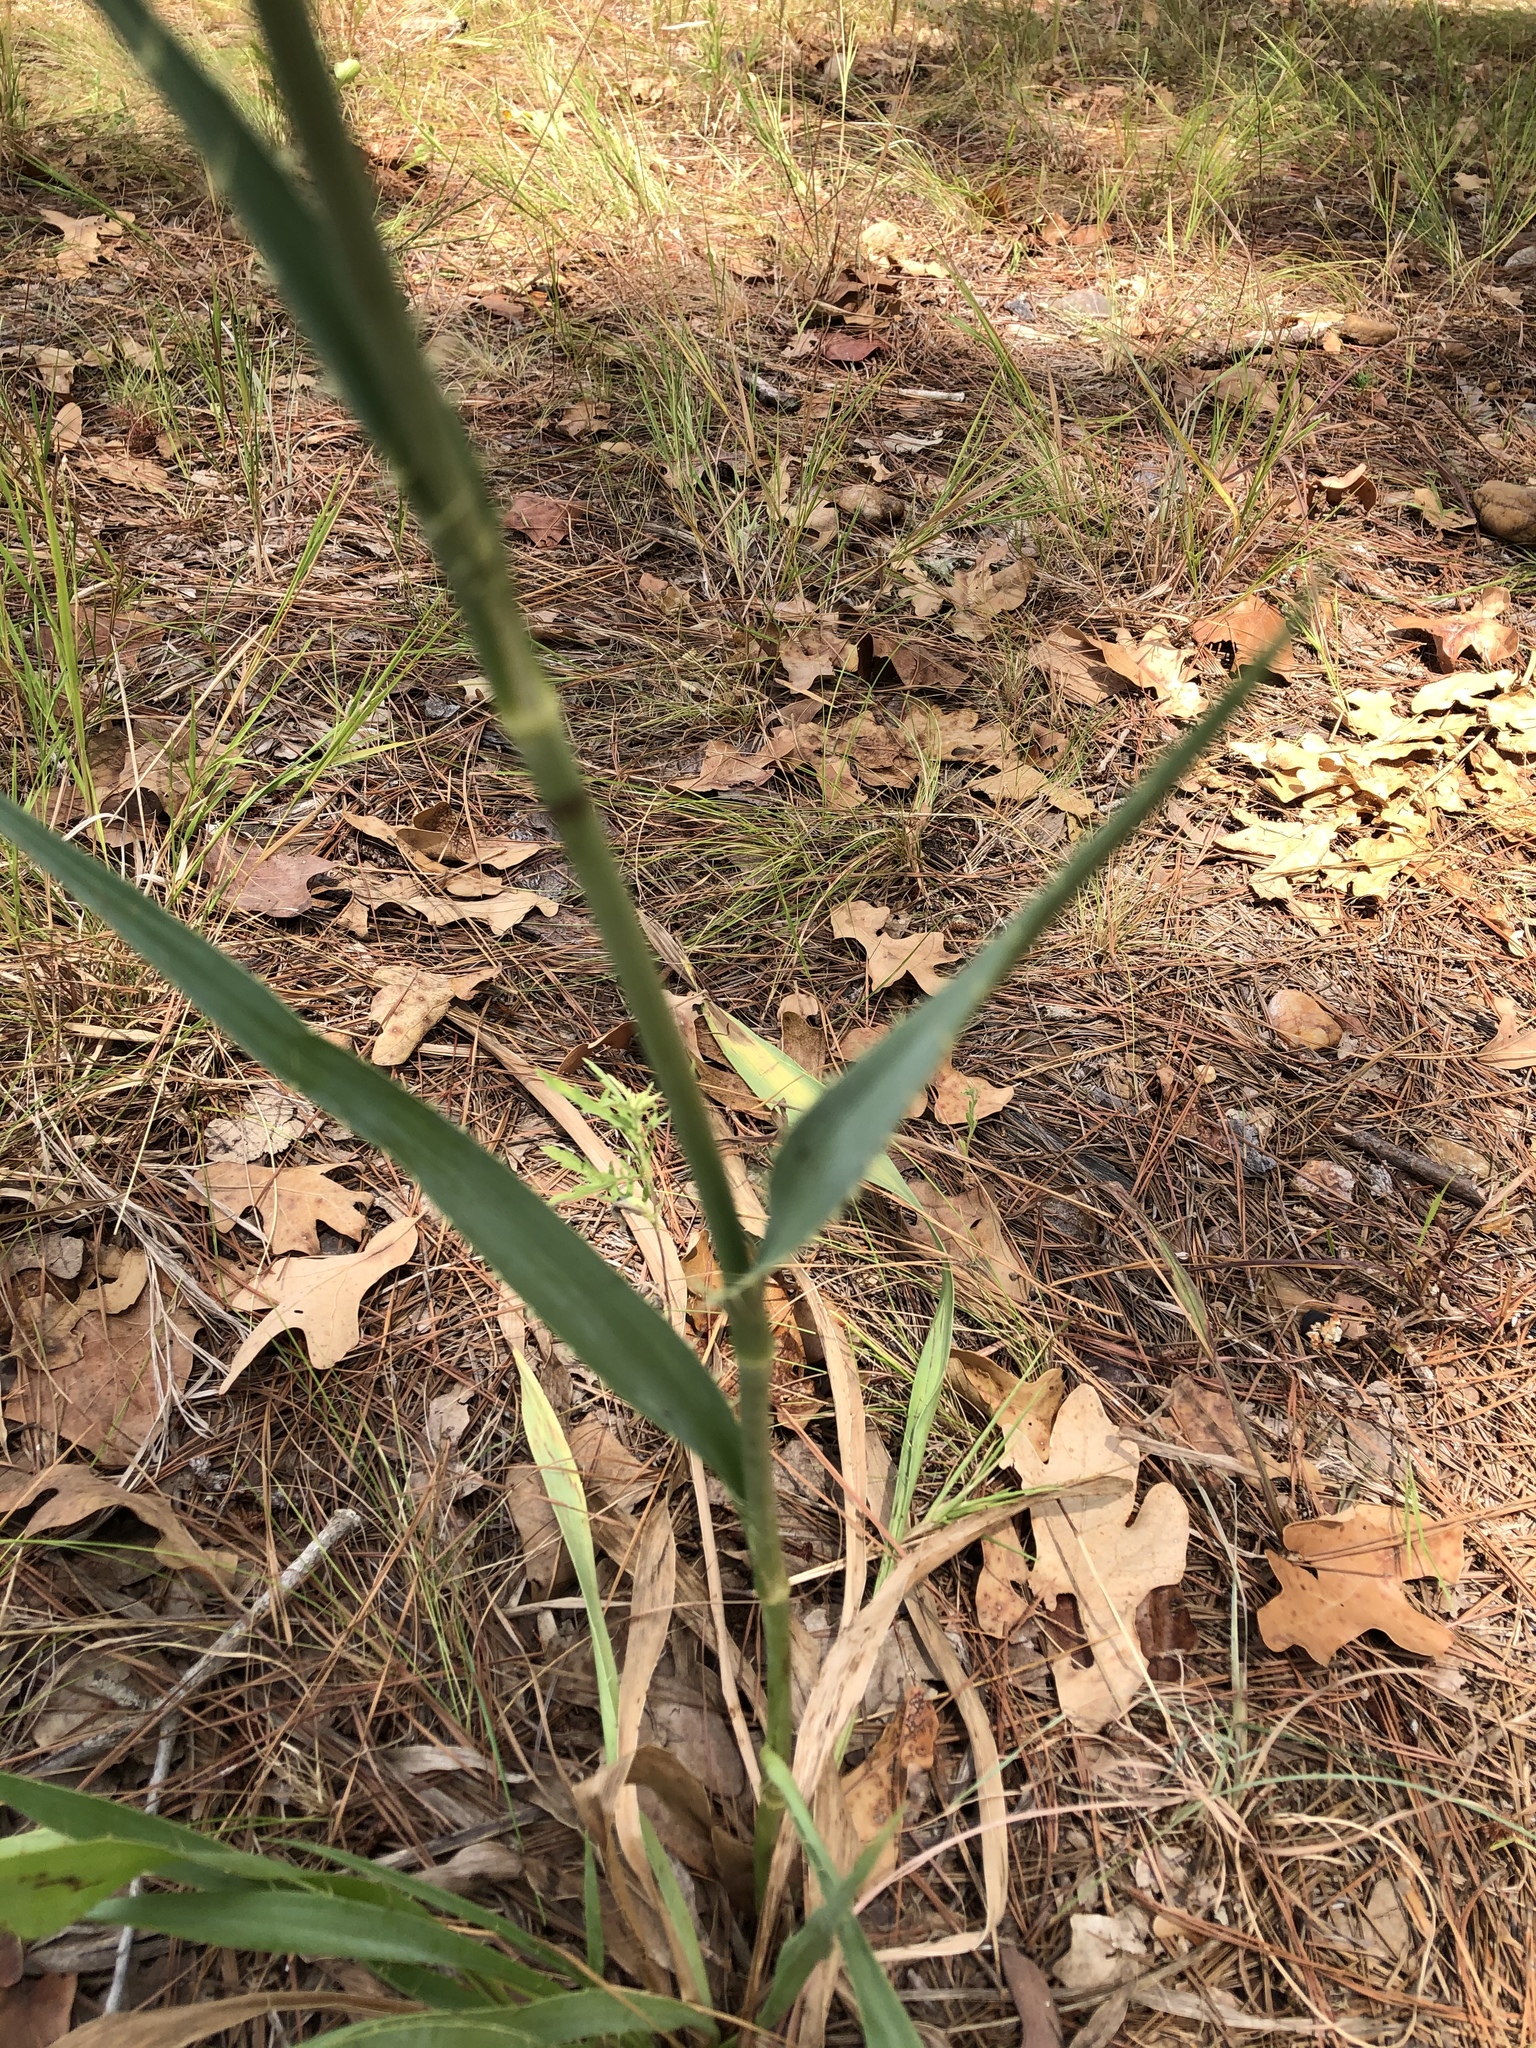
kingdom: Plantae
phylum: Tracheophyta
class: Magnoliopsida
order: Apiales
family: Apiaceae
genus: Eryngium
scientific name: Eryngium yuccifolium
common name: Button eryngo
